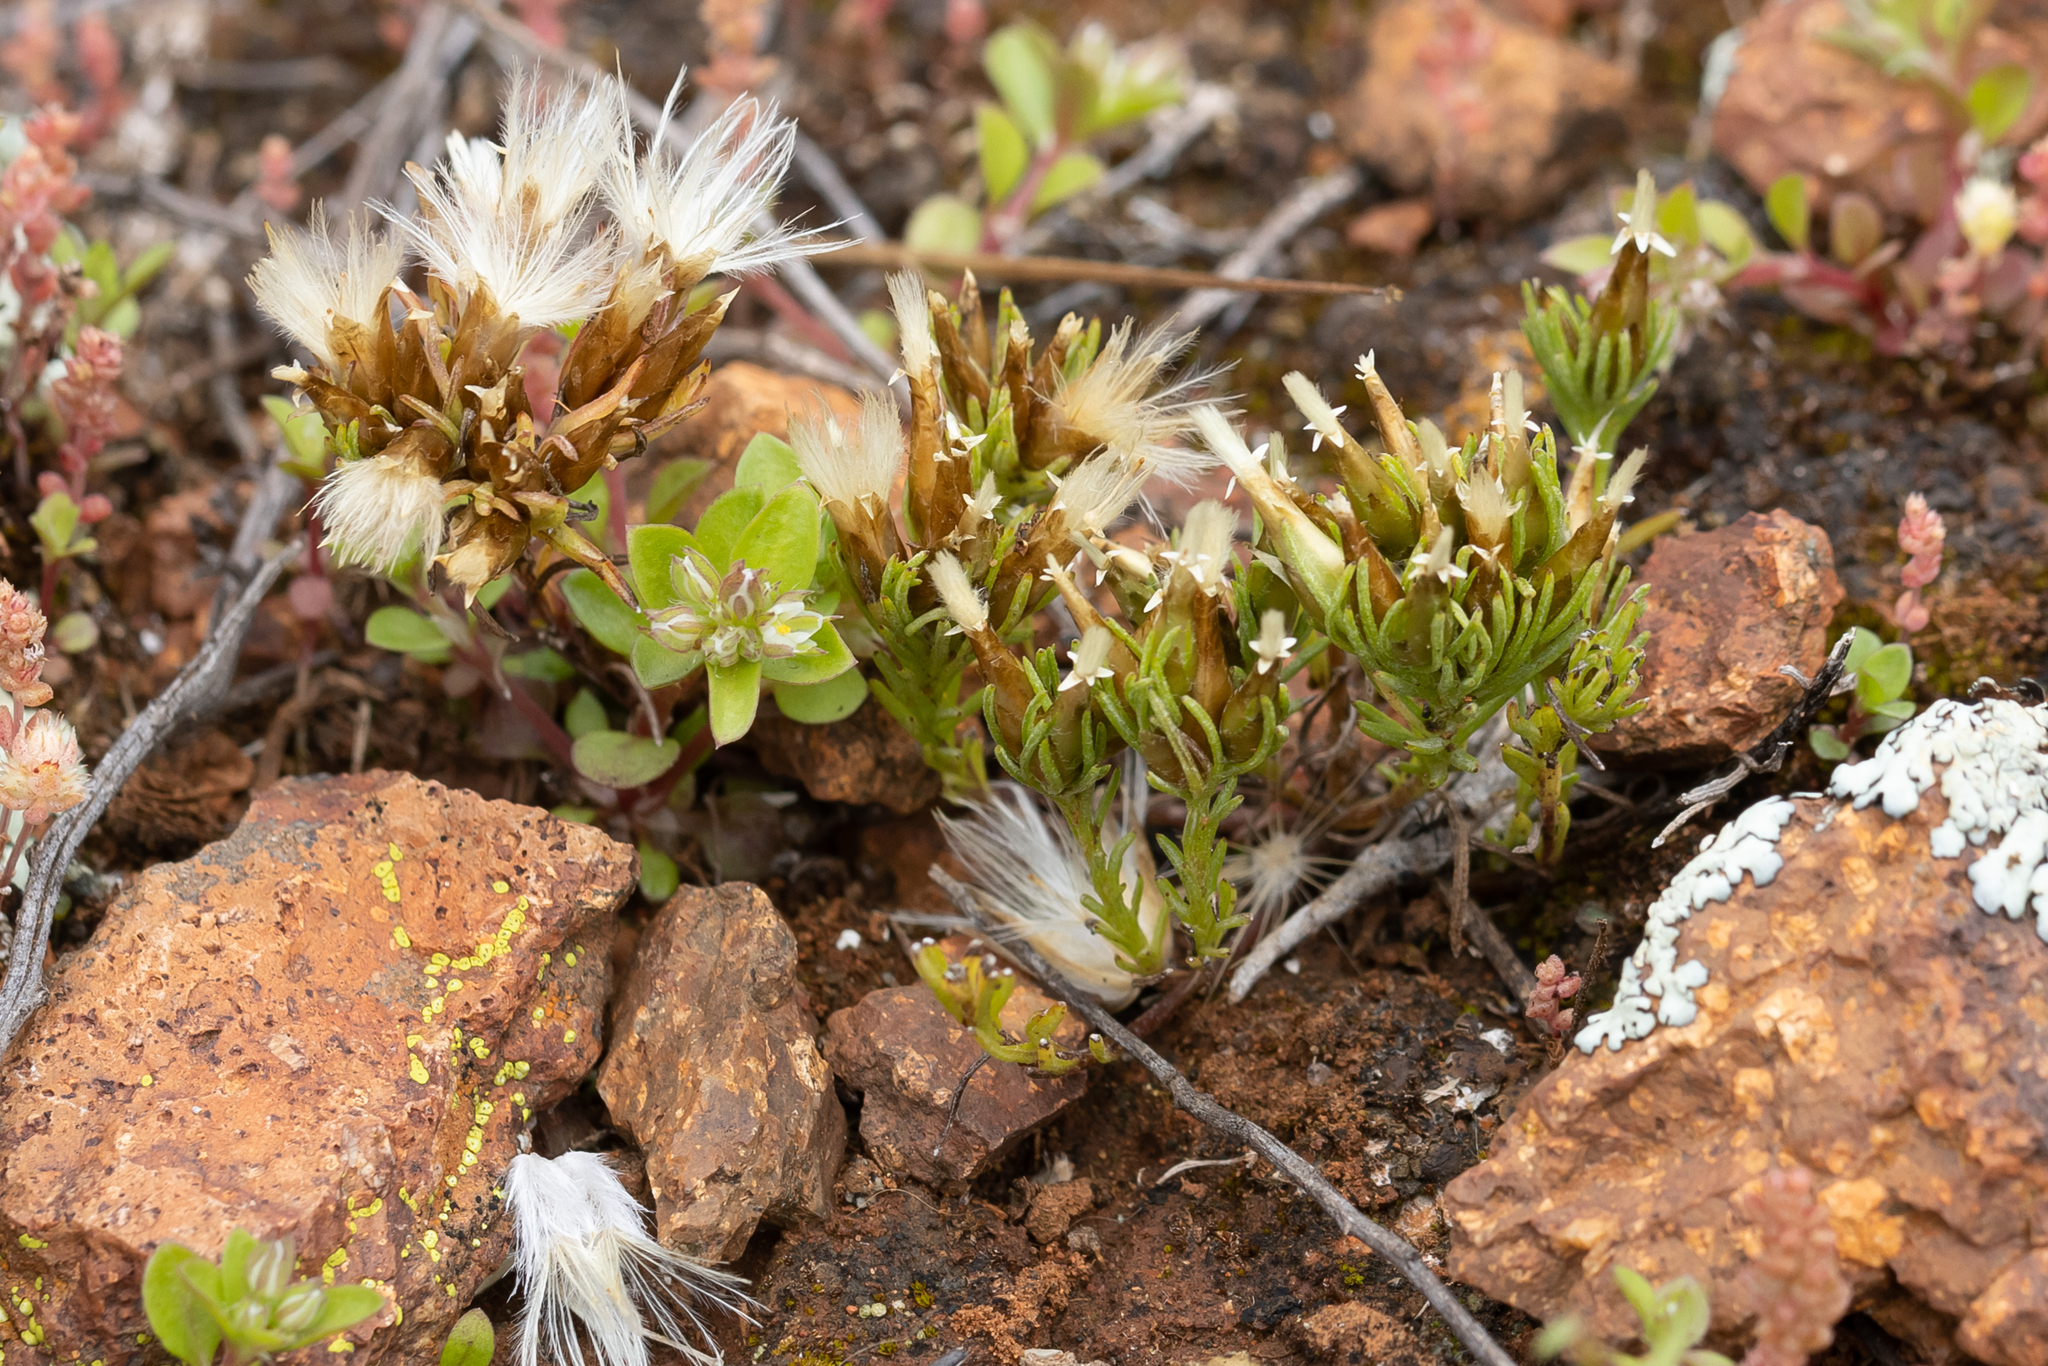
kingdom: Plantae
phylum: Tracheophyta
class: Magnoliopsida
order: Asterales
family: Asteraceae
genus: Rhodanthe
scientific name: Rhodanthe pygmaea
